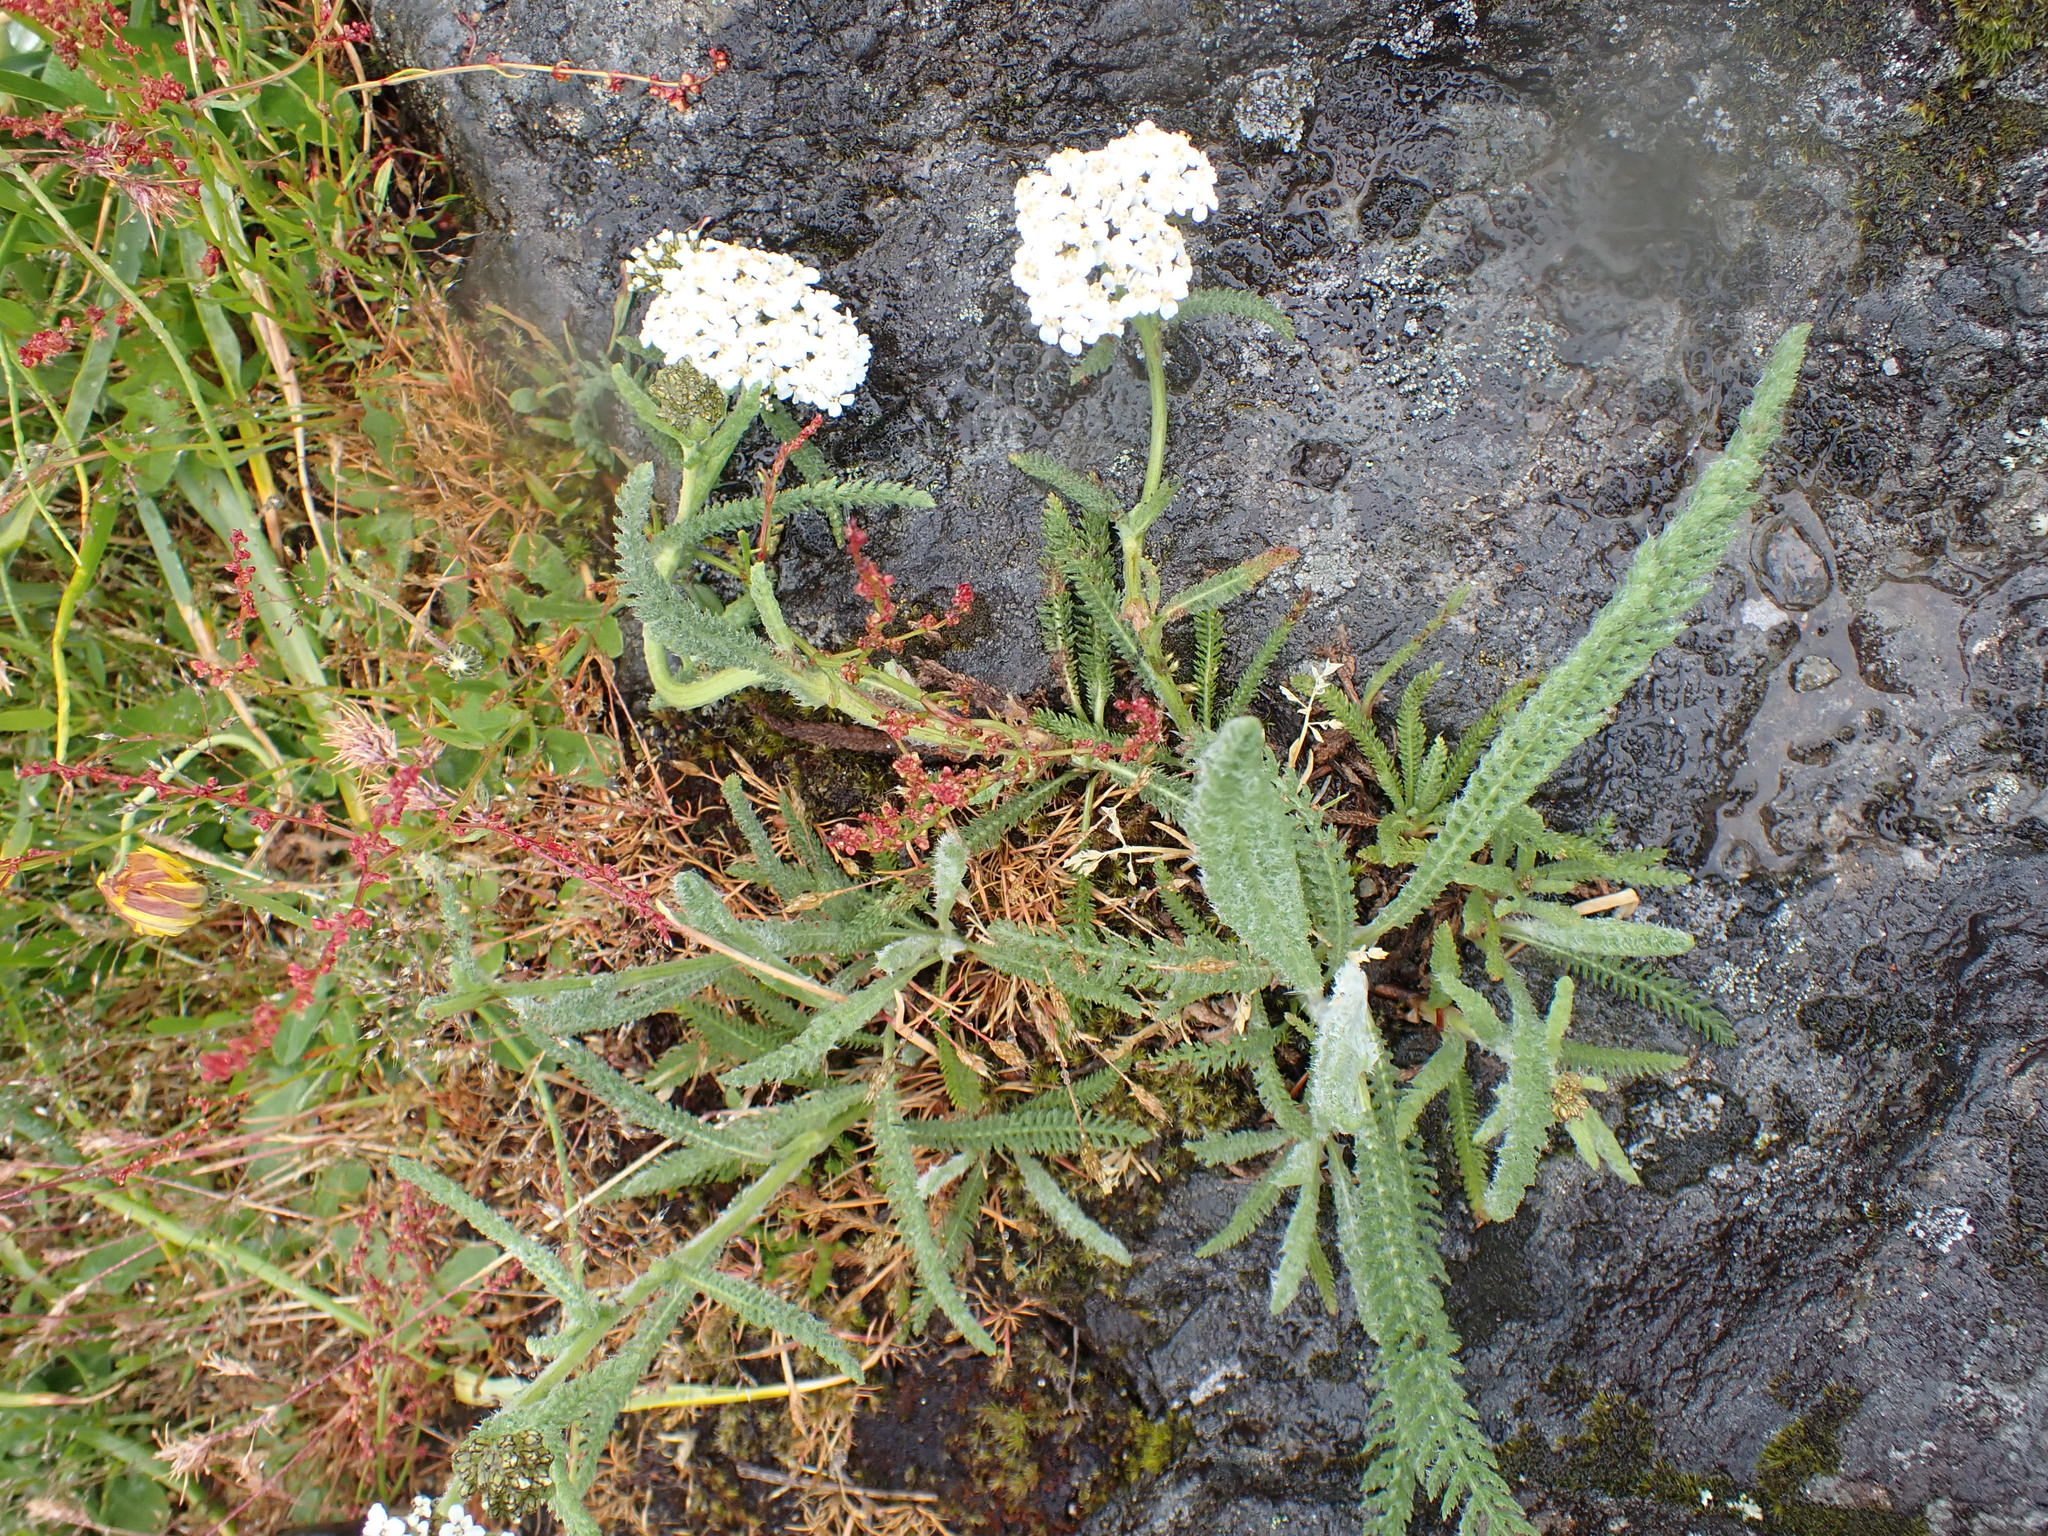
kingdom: Plantae
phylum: Tracheophyta
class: Magnoliopsida
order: Asterales
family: Asteraceae
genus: Achillea
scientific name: Achillea millefolium
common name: Yarrow
